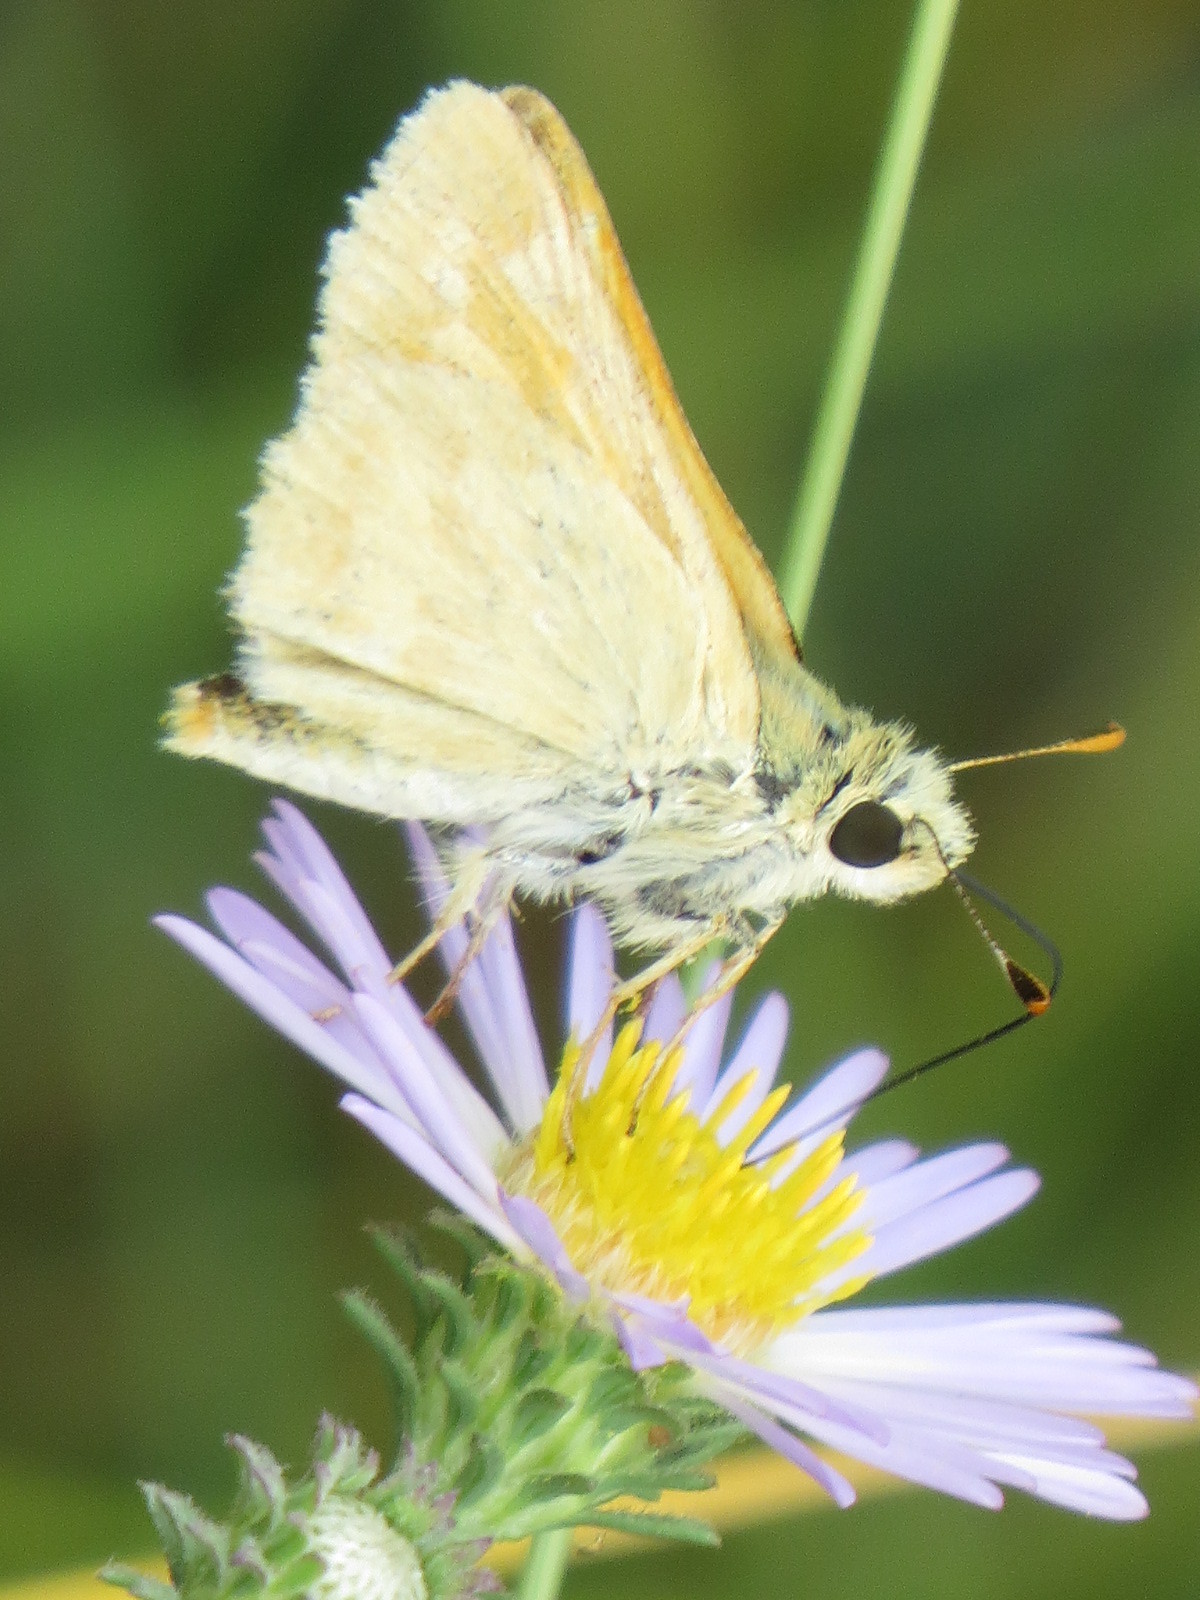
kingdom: Animalia
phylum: Arthropoda
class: Insecta
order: Lepidoptera
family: Hesperiidae
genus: Ochlodes
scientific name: Ochlodes sylvanoides
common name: Woodland skipper
